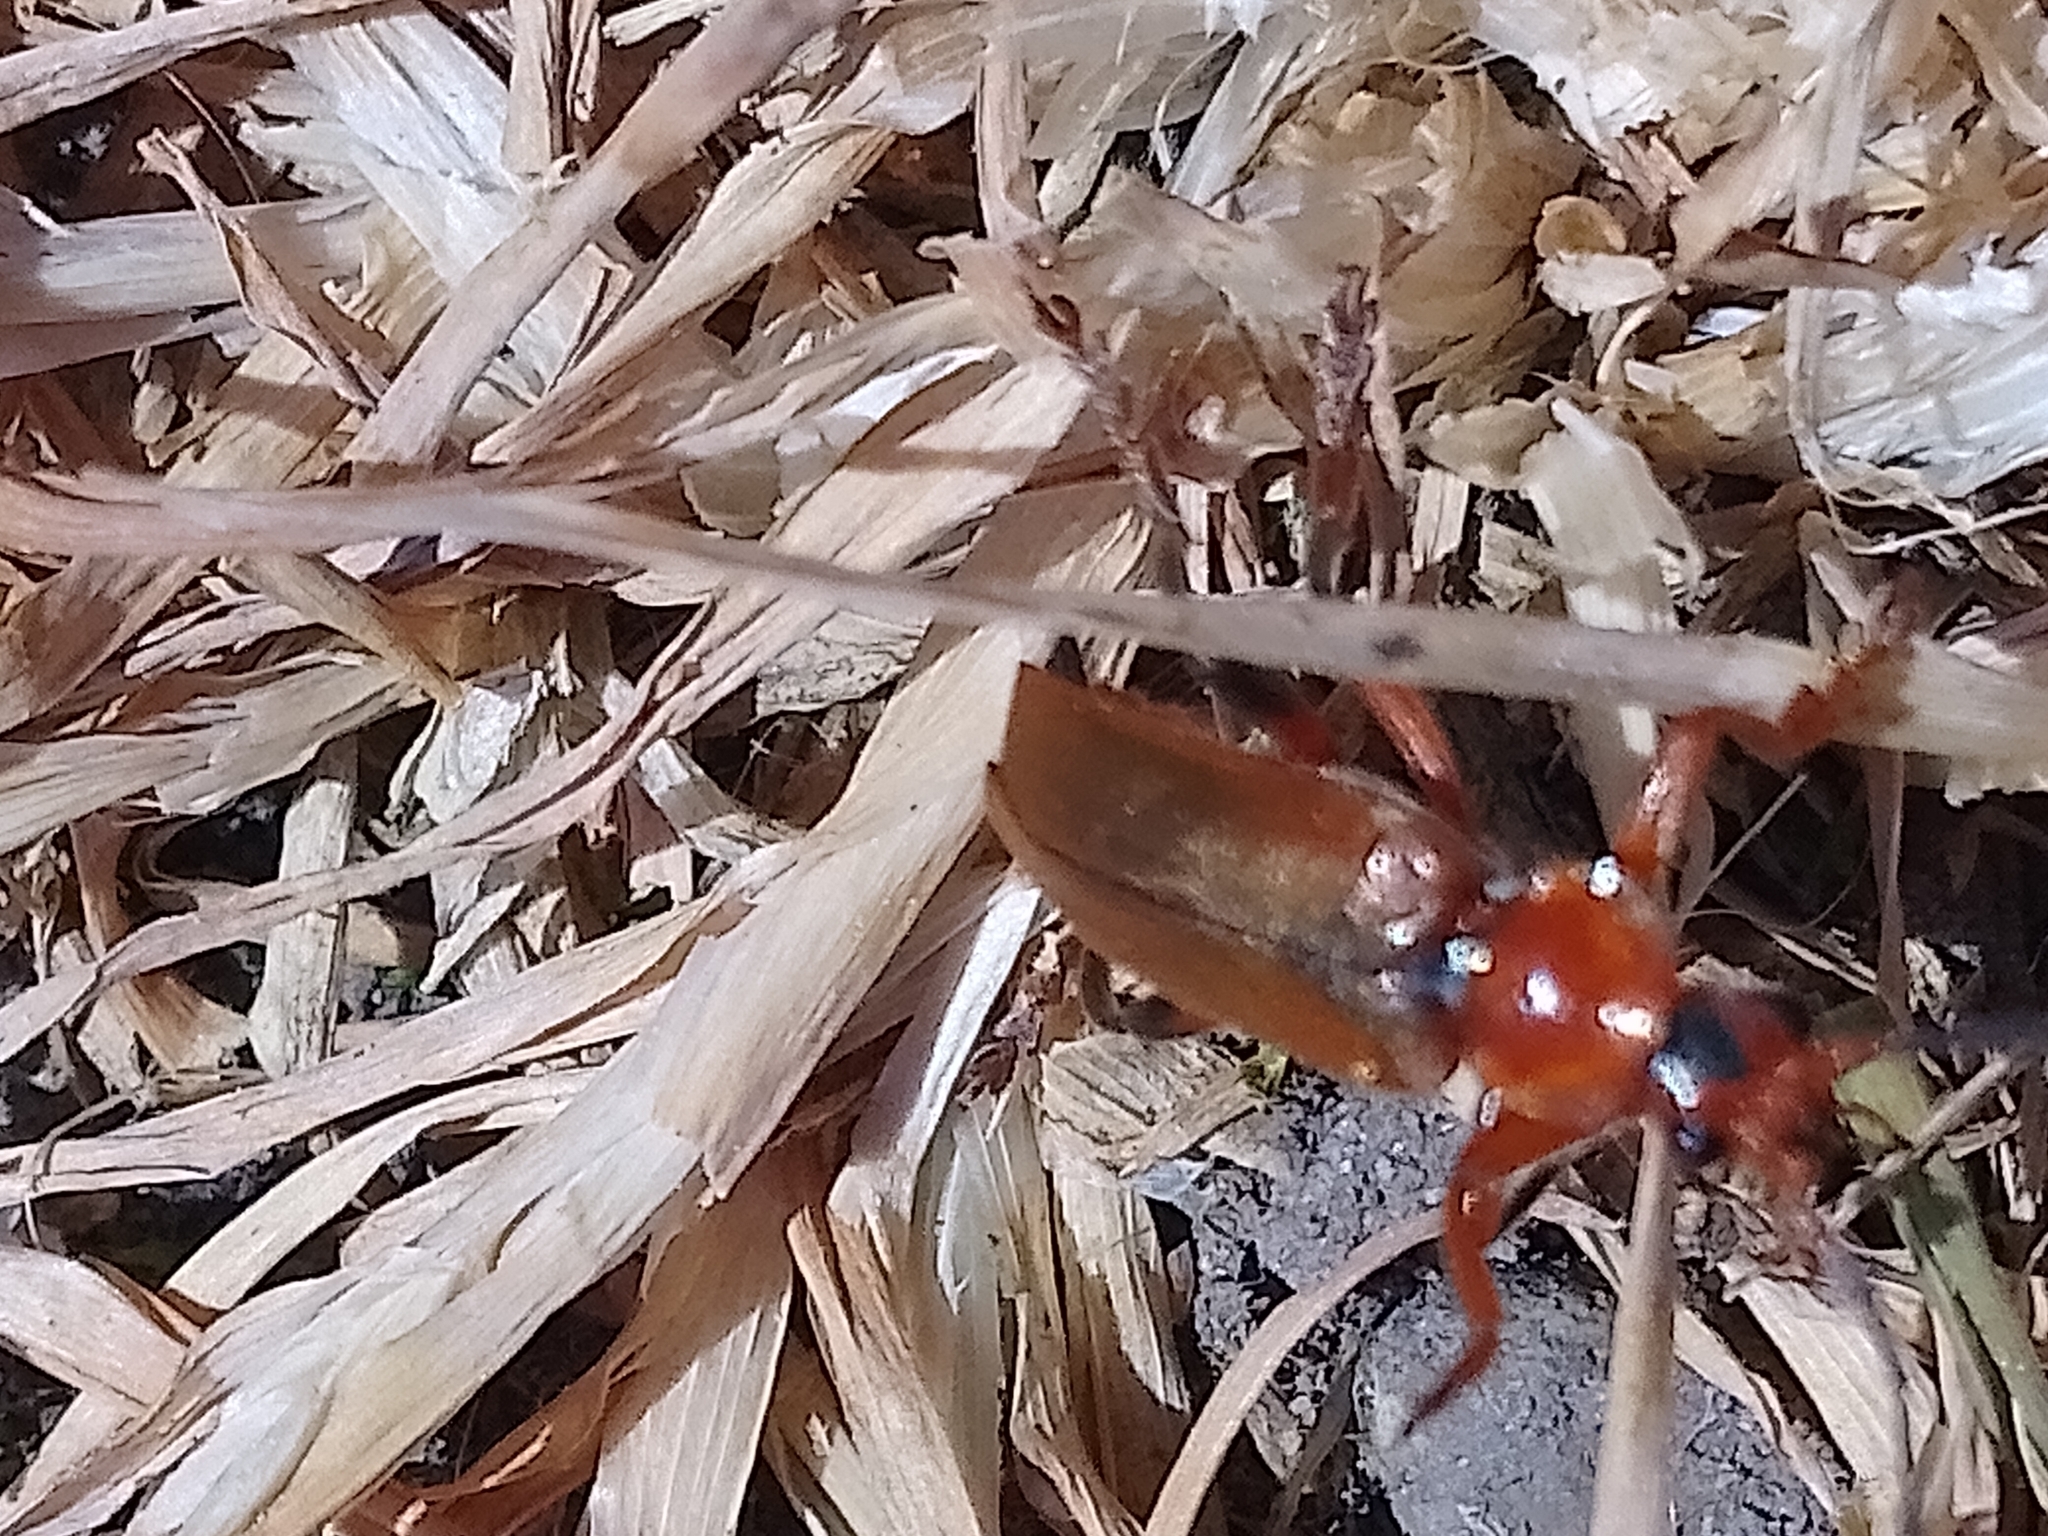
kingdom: Animalia
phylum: Arthropoda
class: Insecta
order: Coleoptera
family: Cantharidae
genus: Cantharis
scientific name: Cantharis livida
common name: Livid soldier beetle
